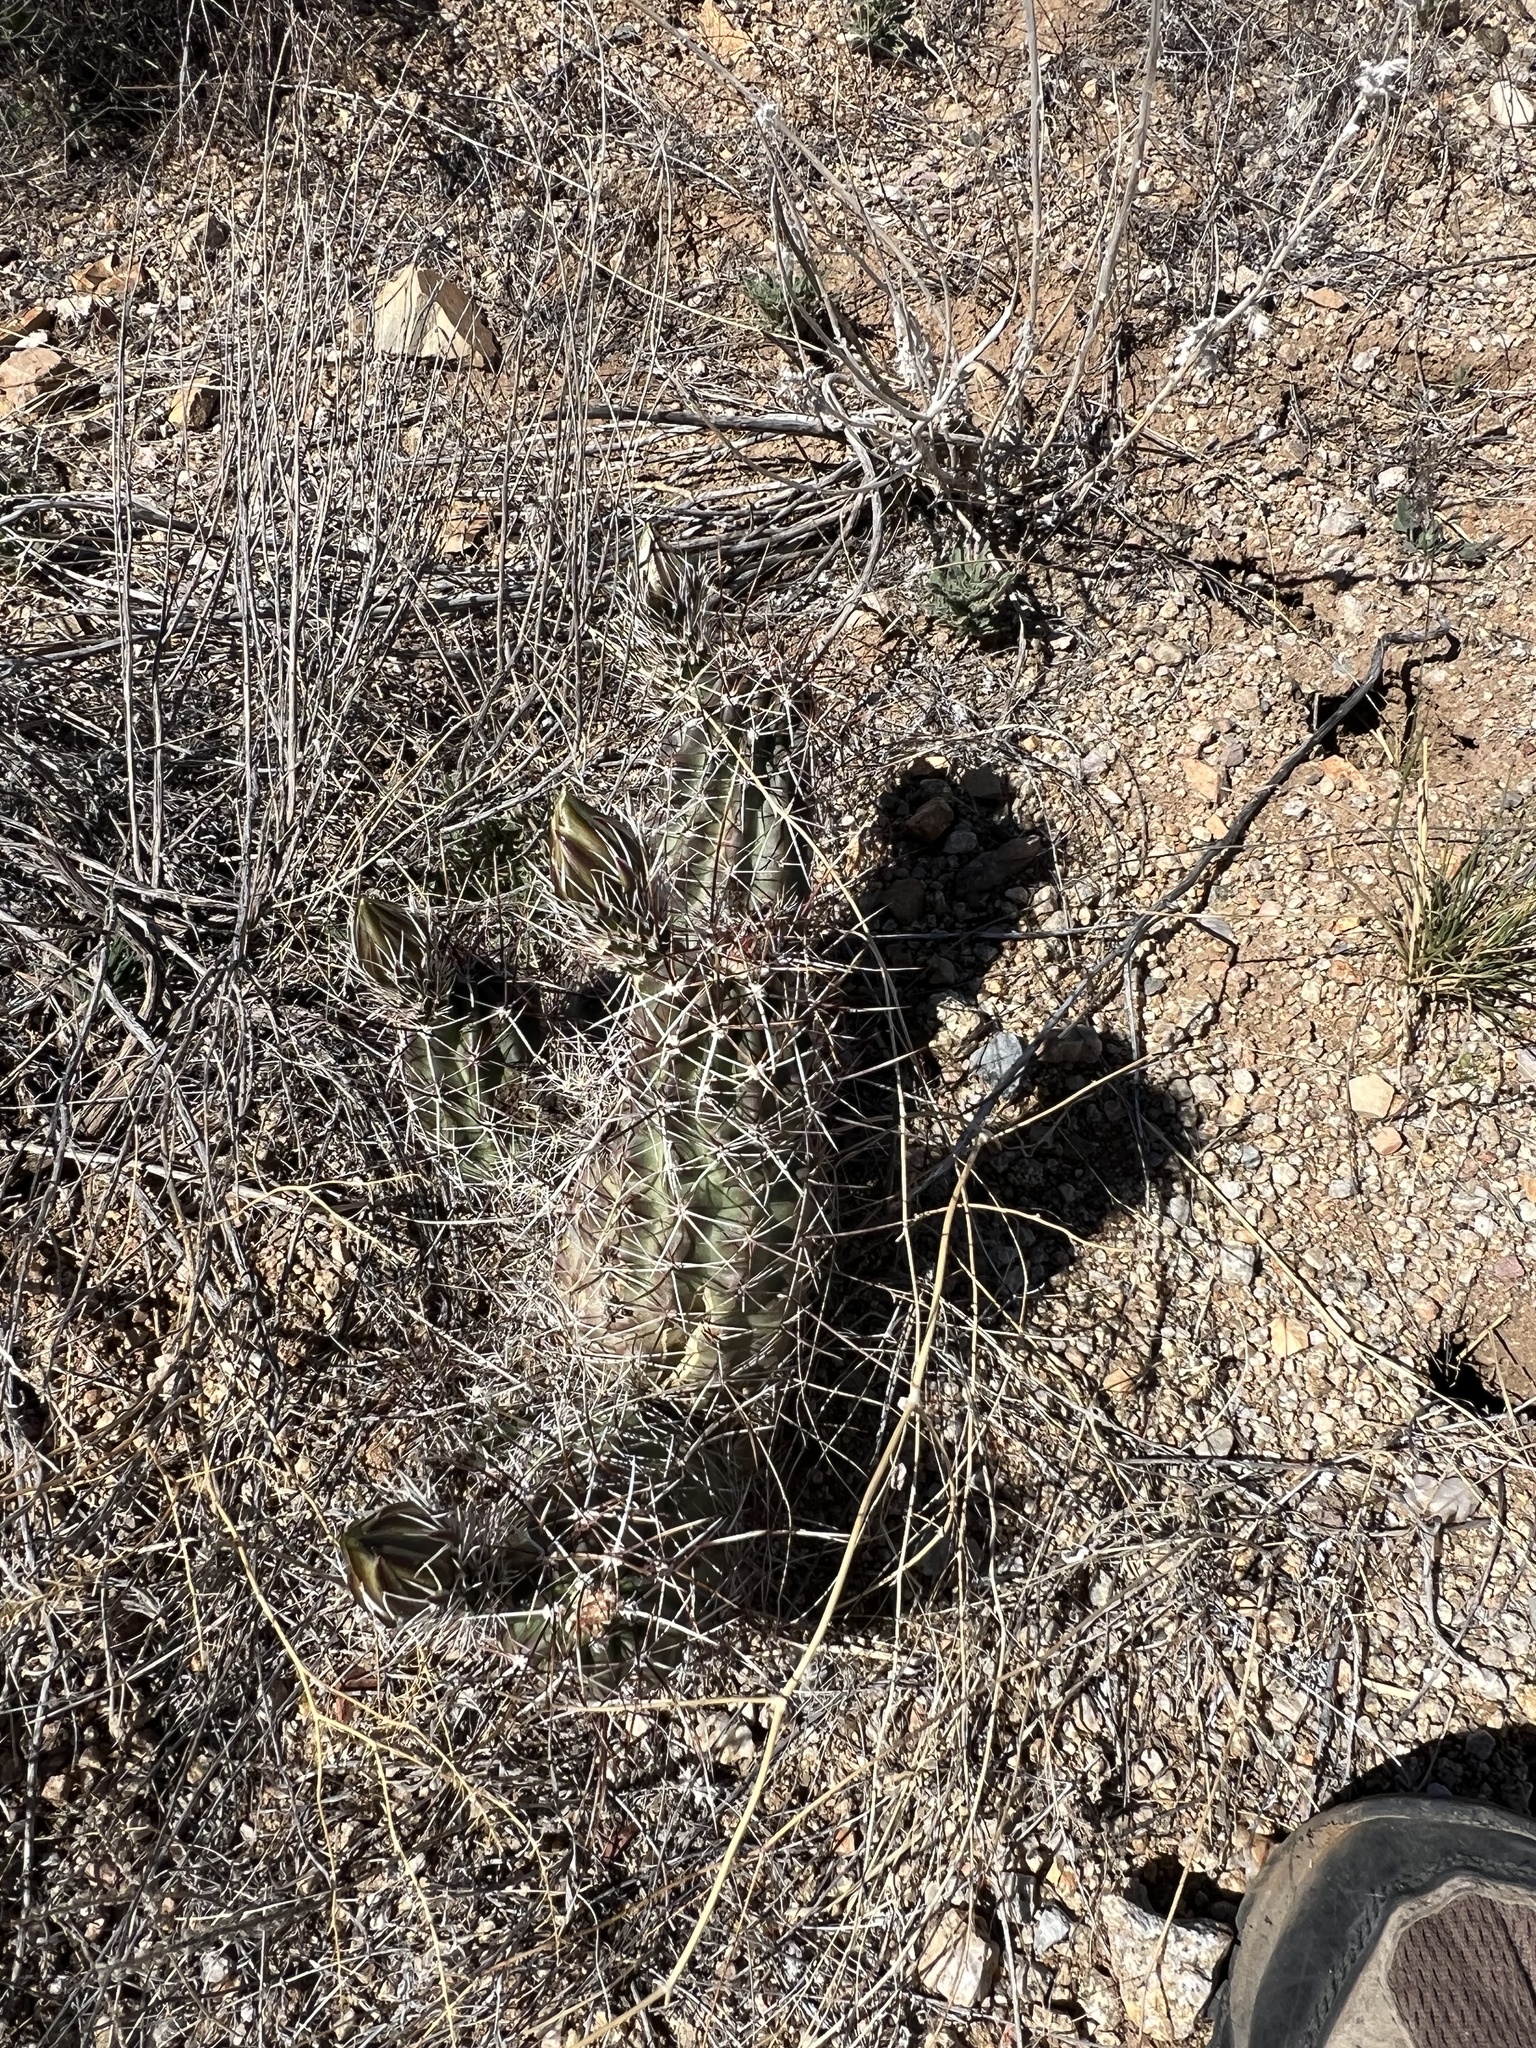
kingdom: Plantae
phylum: Tracheophyta
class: Magnoliopsida
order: Caryophyllales
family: Cactaceae
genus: Echinocereus
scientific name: Echinocereus fendleri
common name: Fendler's hedgehog cactus
